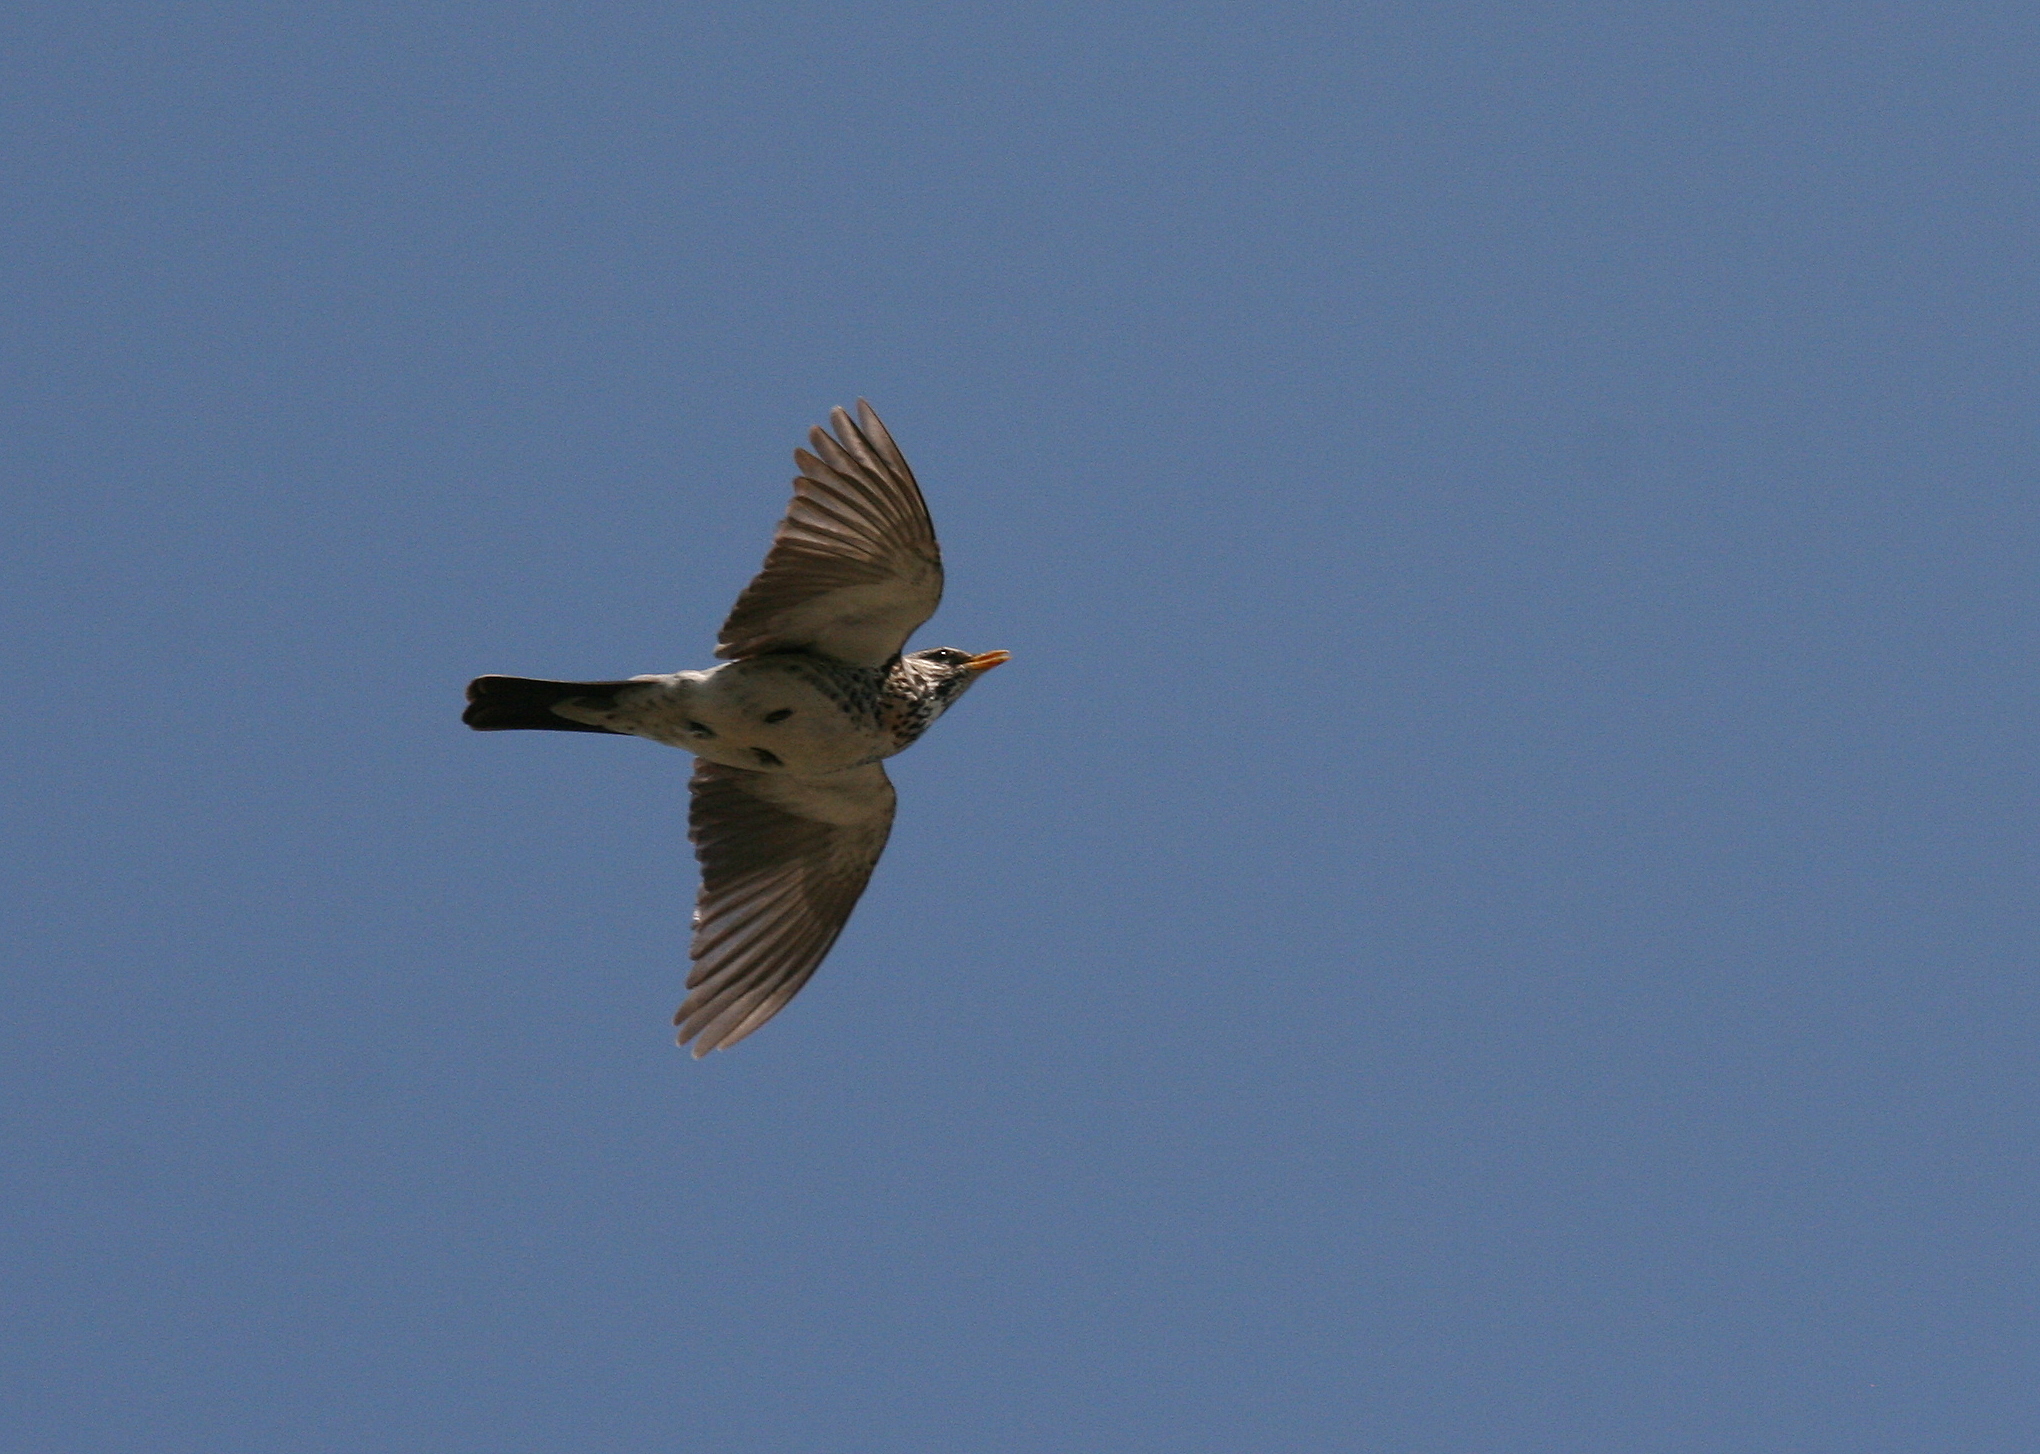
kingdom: Animalia
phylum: Chordata
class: Aves
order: Passeriformes
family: Turdidae
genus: Turdus
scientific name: Turdus pilaris
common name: Fieldfare
